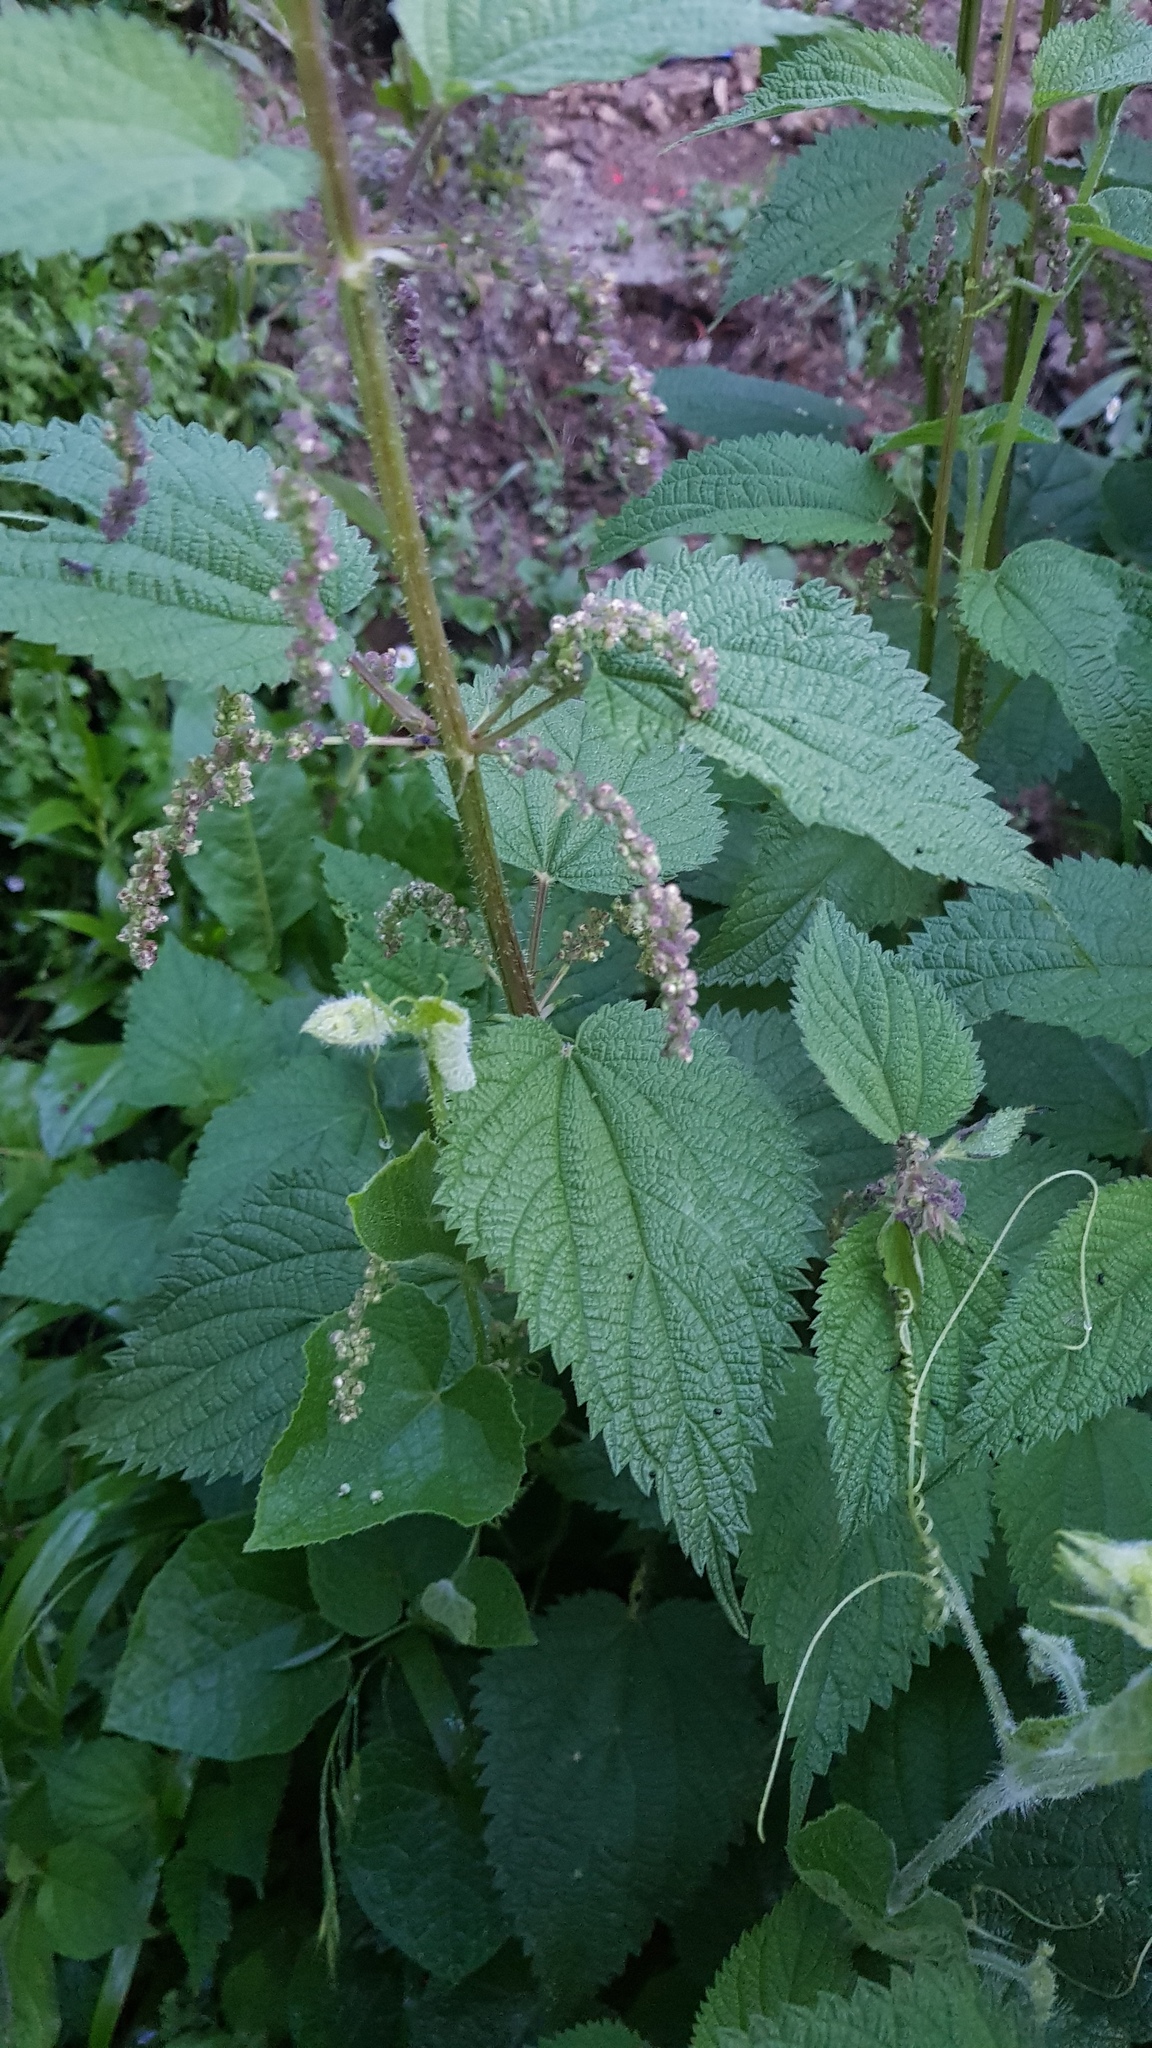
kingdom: Plantae
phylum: Tracheophyta
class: Magnoliopsida
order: Rosales
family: Urticaceae
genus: Urtica
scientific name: Urtica dioica
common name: Common nettle
